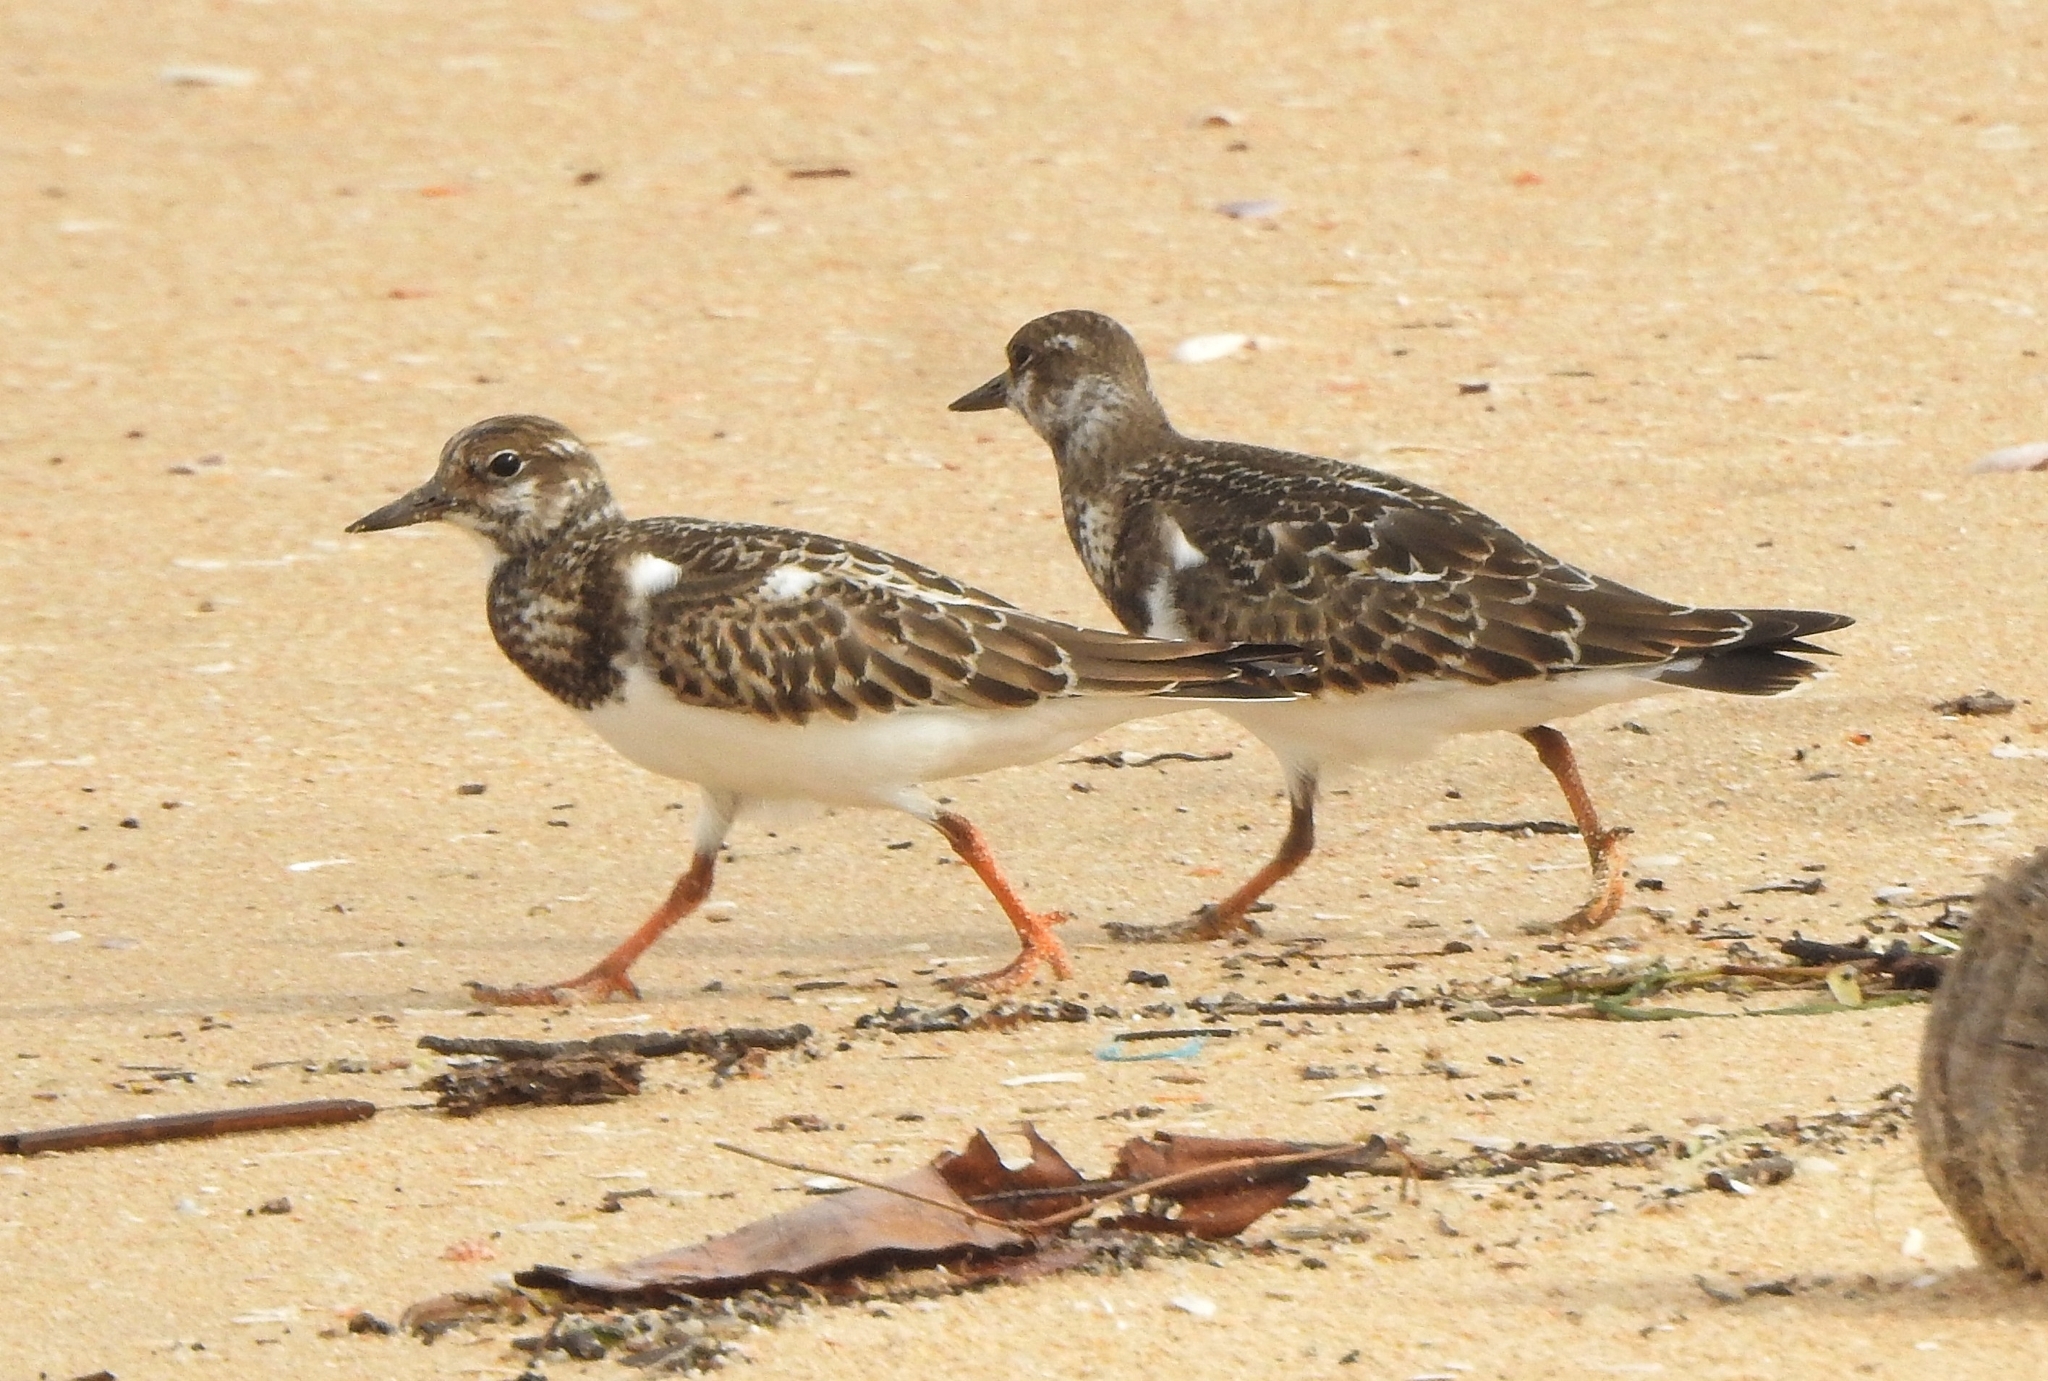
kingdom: Animalia
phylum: Chordata
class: Aves
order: Charadriiformes
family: Scolopacidae
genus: Arenaria
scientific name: Arenaria interpres
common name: Ruddy turnstone
